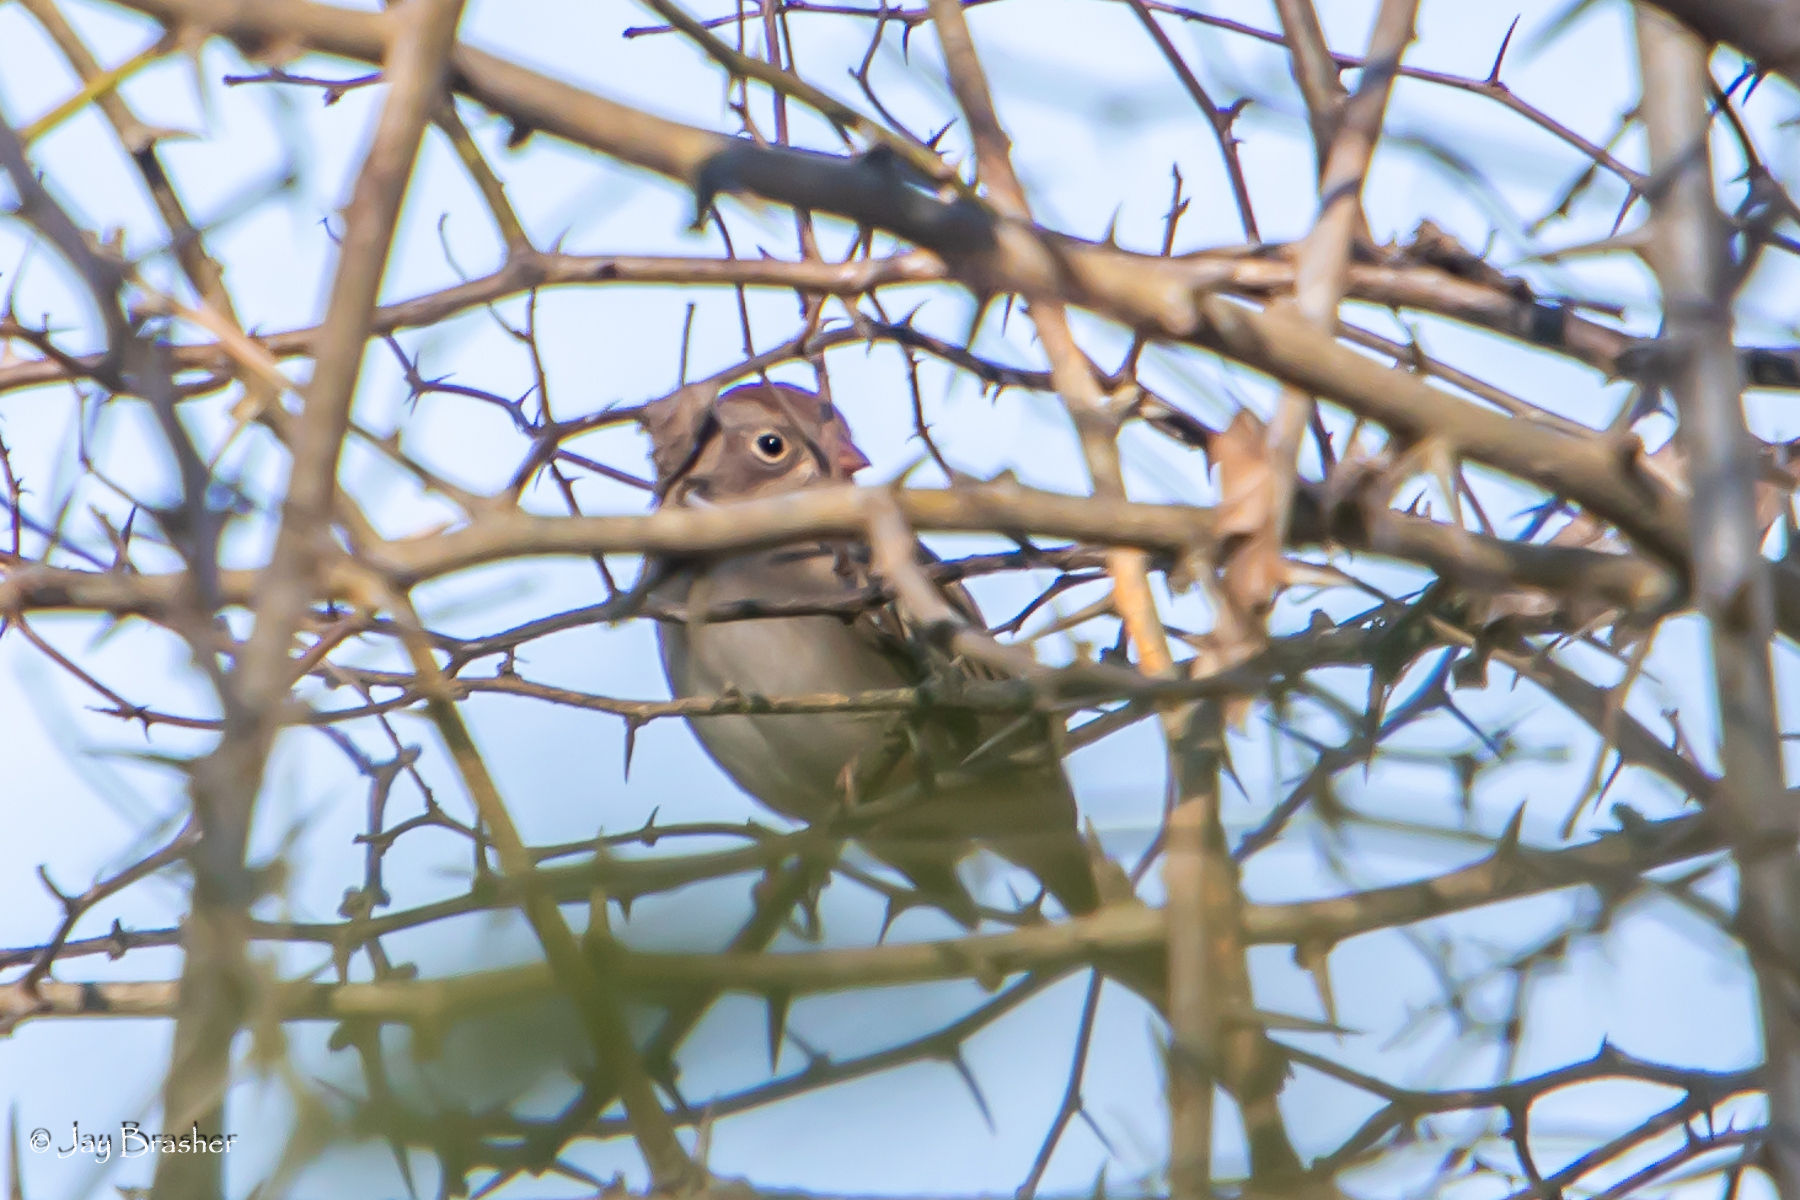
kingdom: Animalia
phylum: Chordata
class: Aves
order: Passeriformes
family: Passerellidae
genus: Spizella
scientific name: Spizella pusilla
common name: Field sparrow
